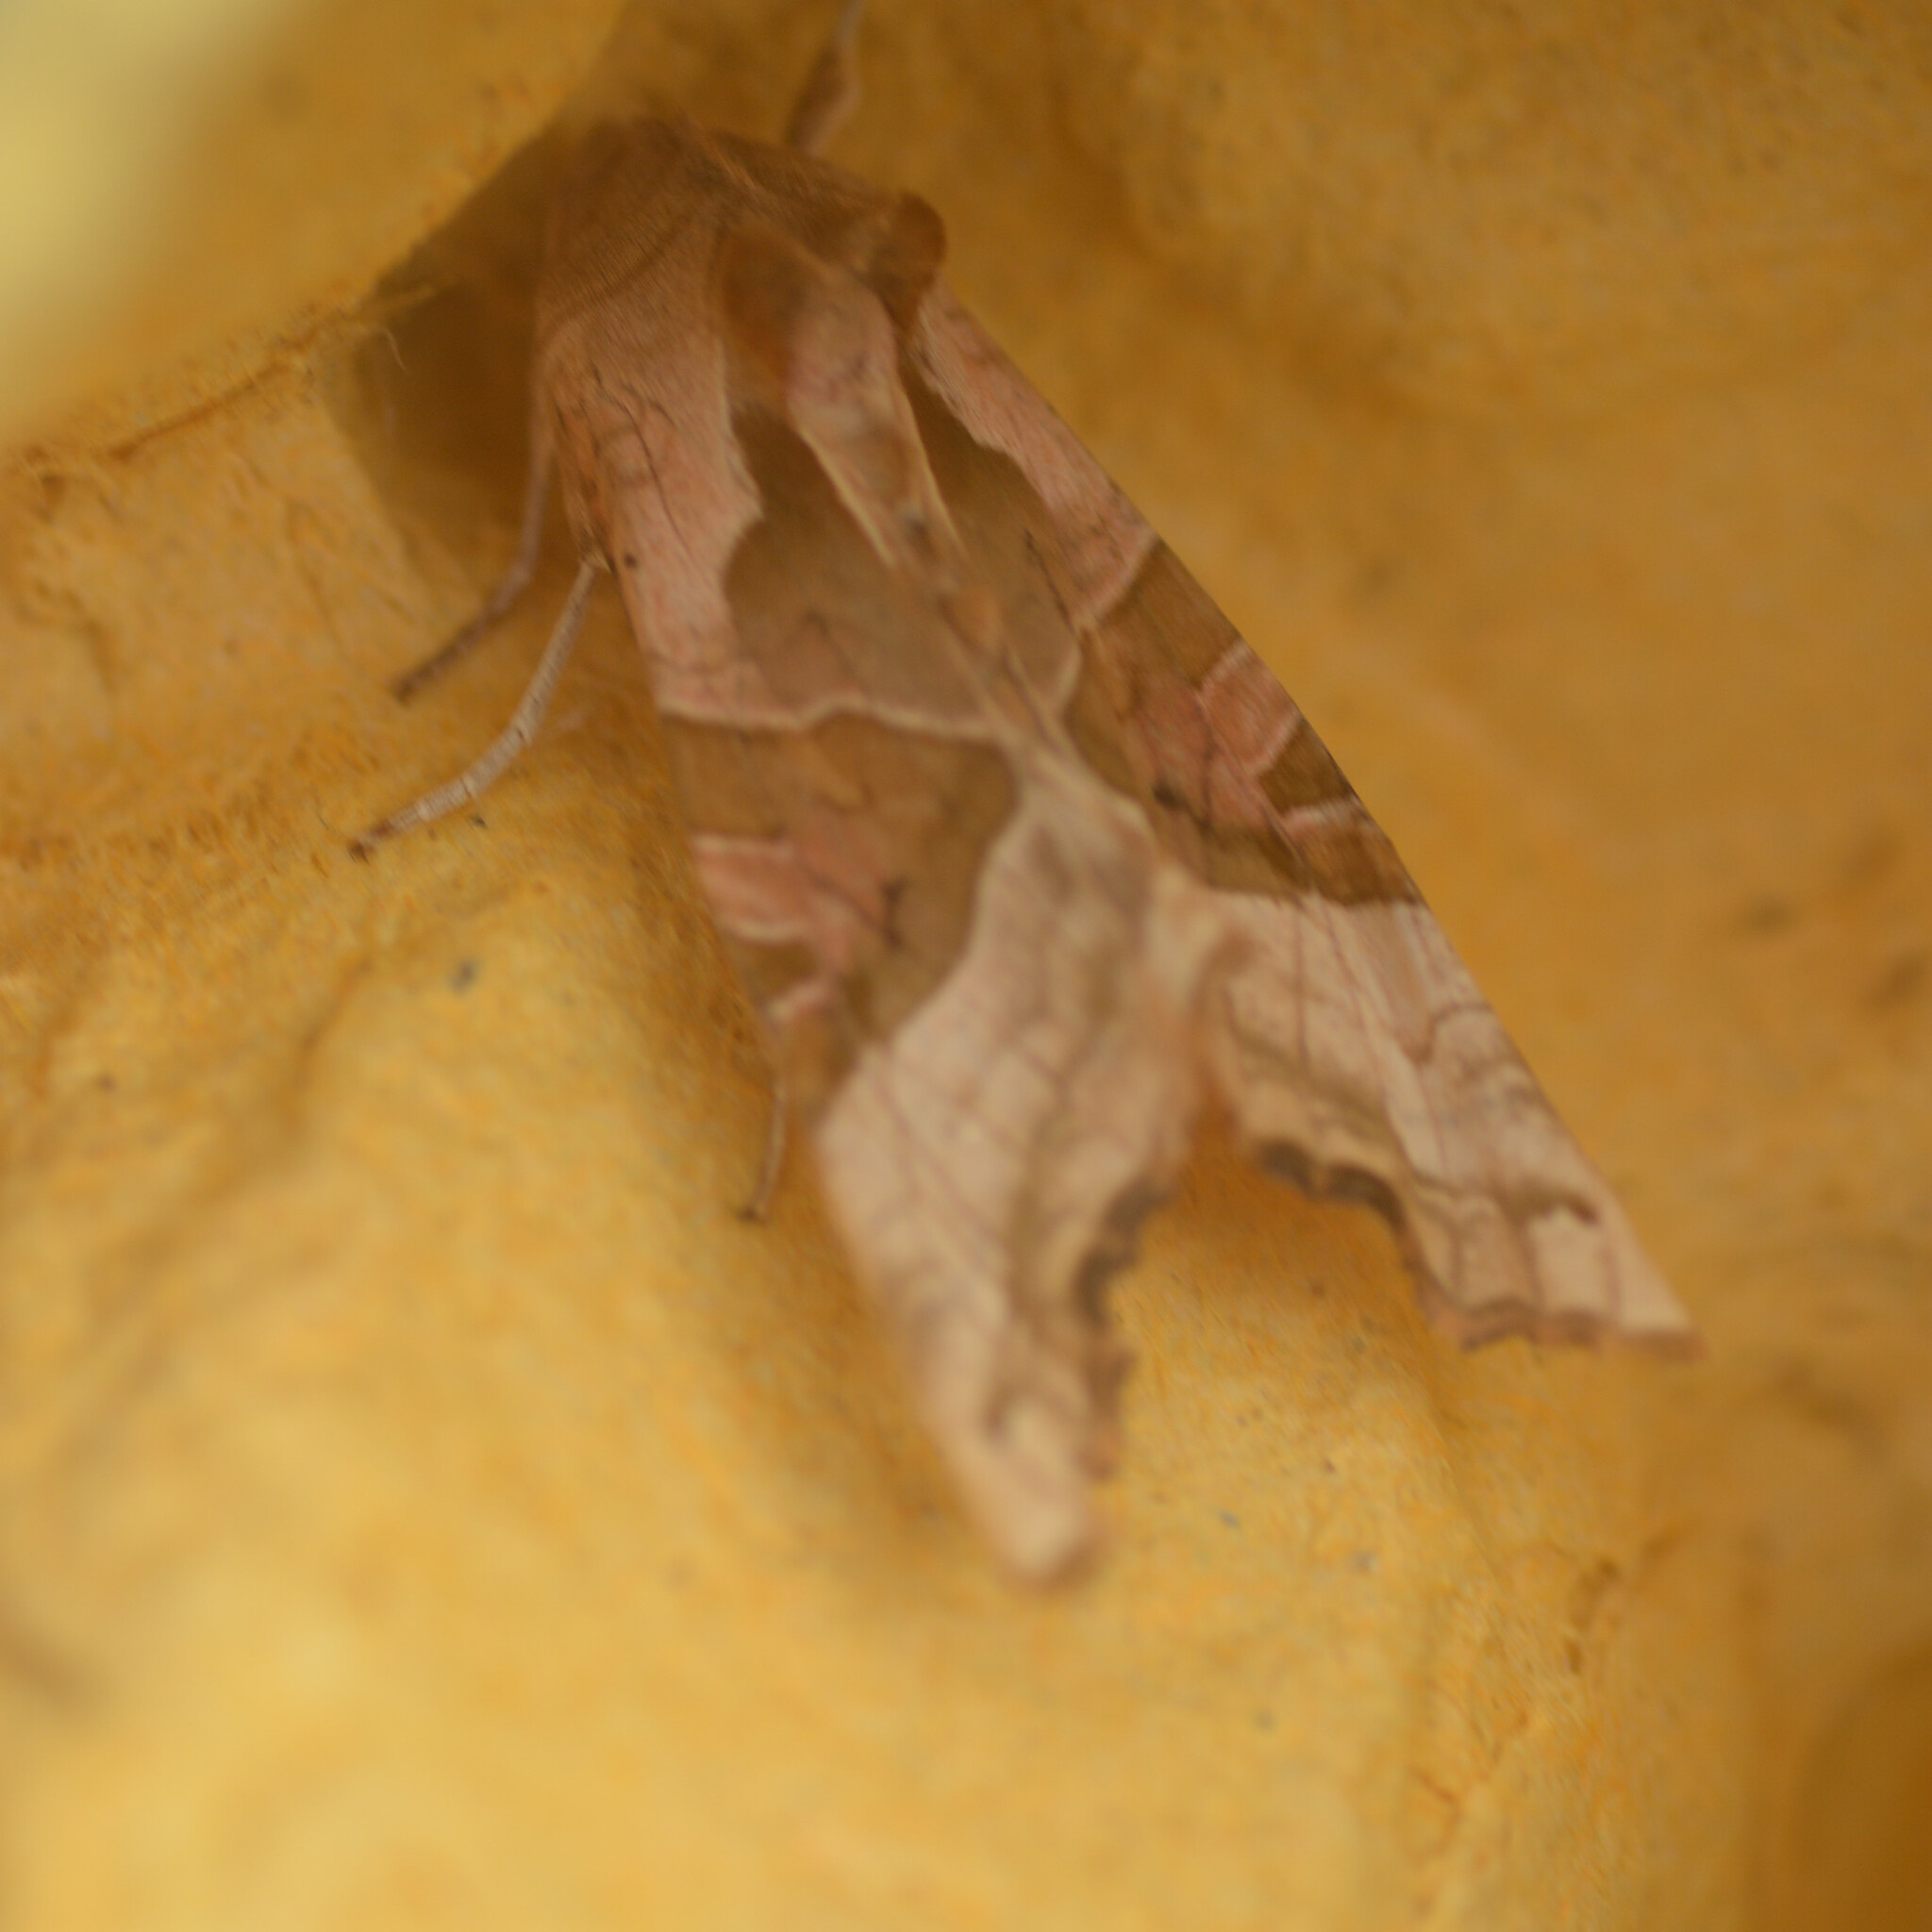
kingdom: Animalia
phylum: Arthropoda
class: Insecta
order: Lepidoptera
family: Noctuidae
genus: Phlogophora
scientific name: Phlogophora meticulosa
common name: Angle shades
